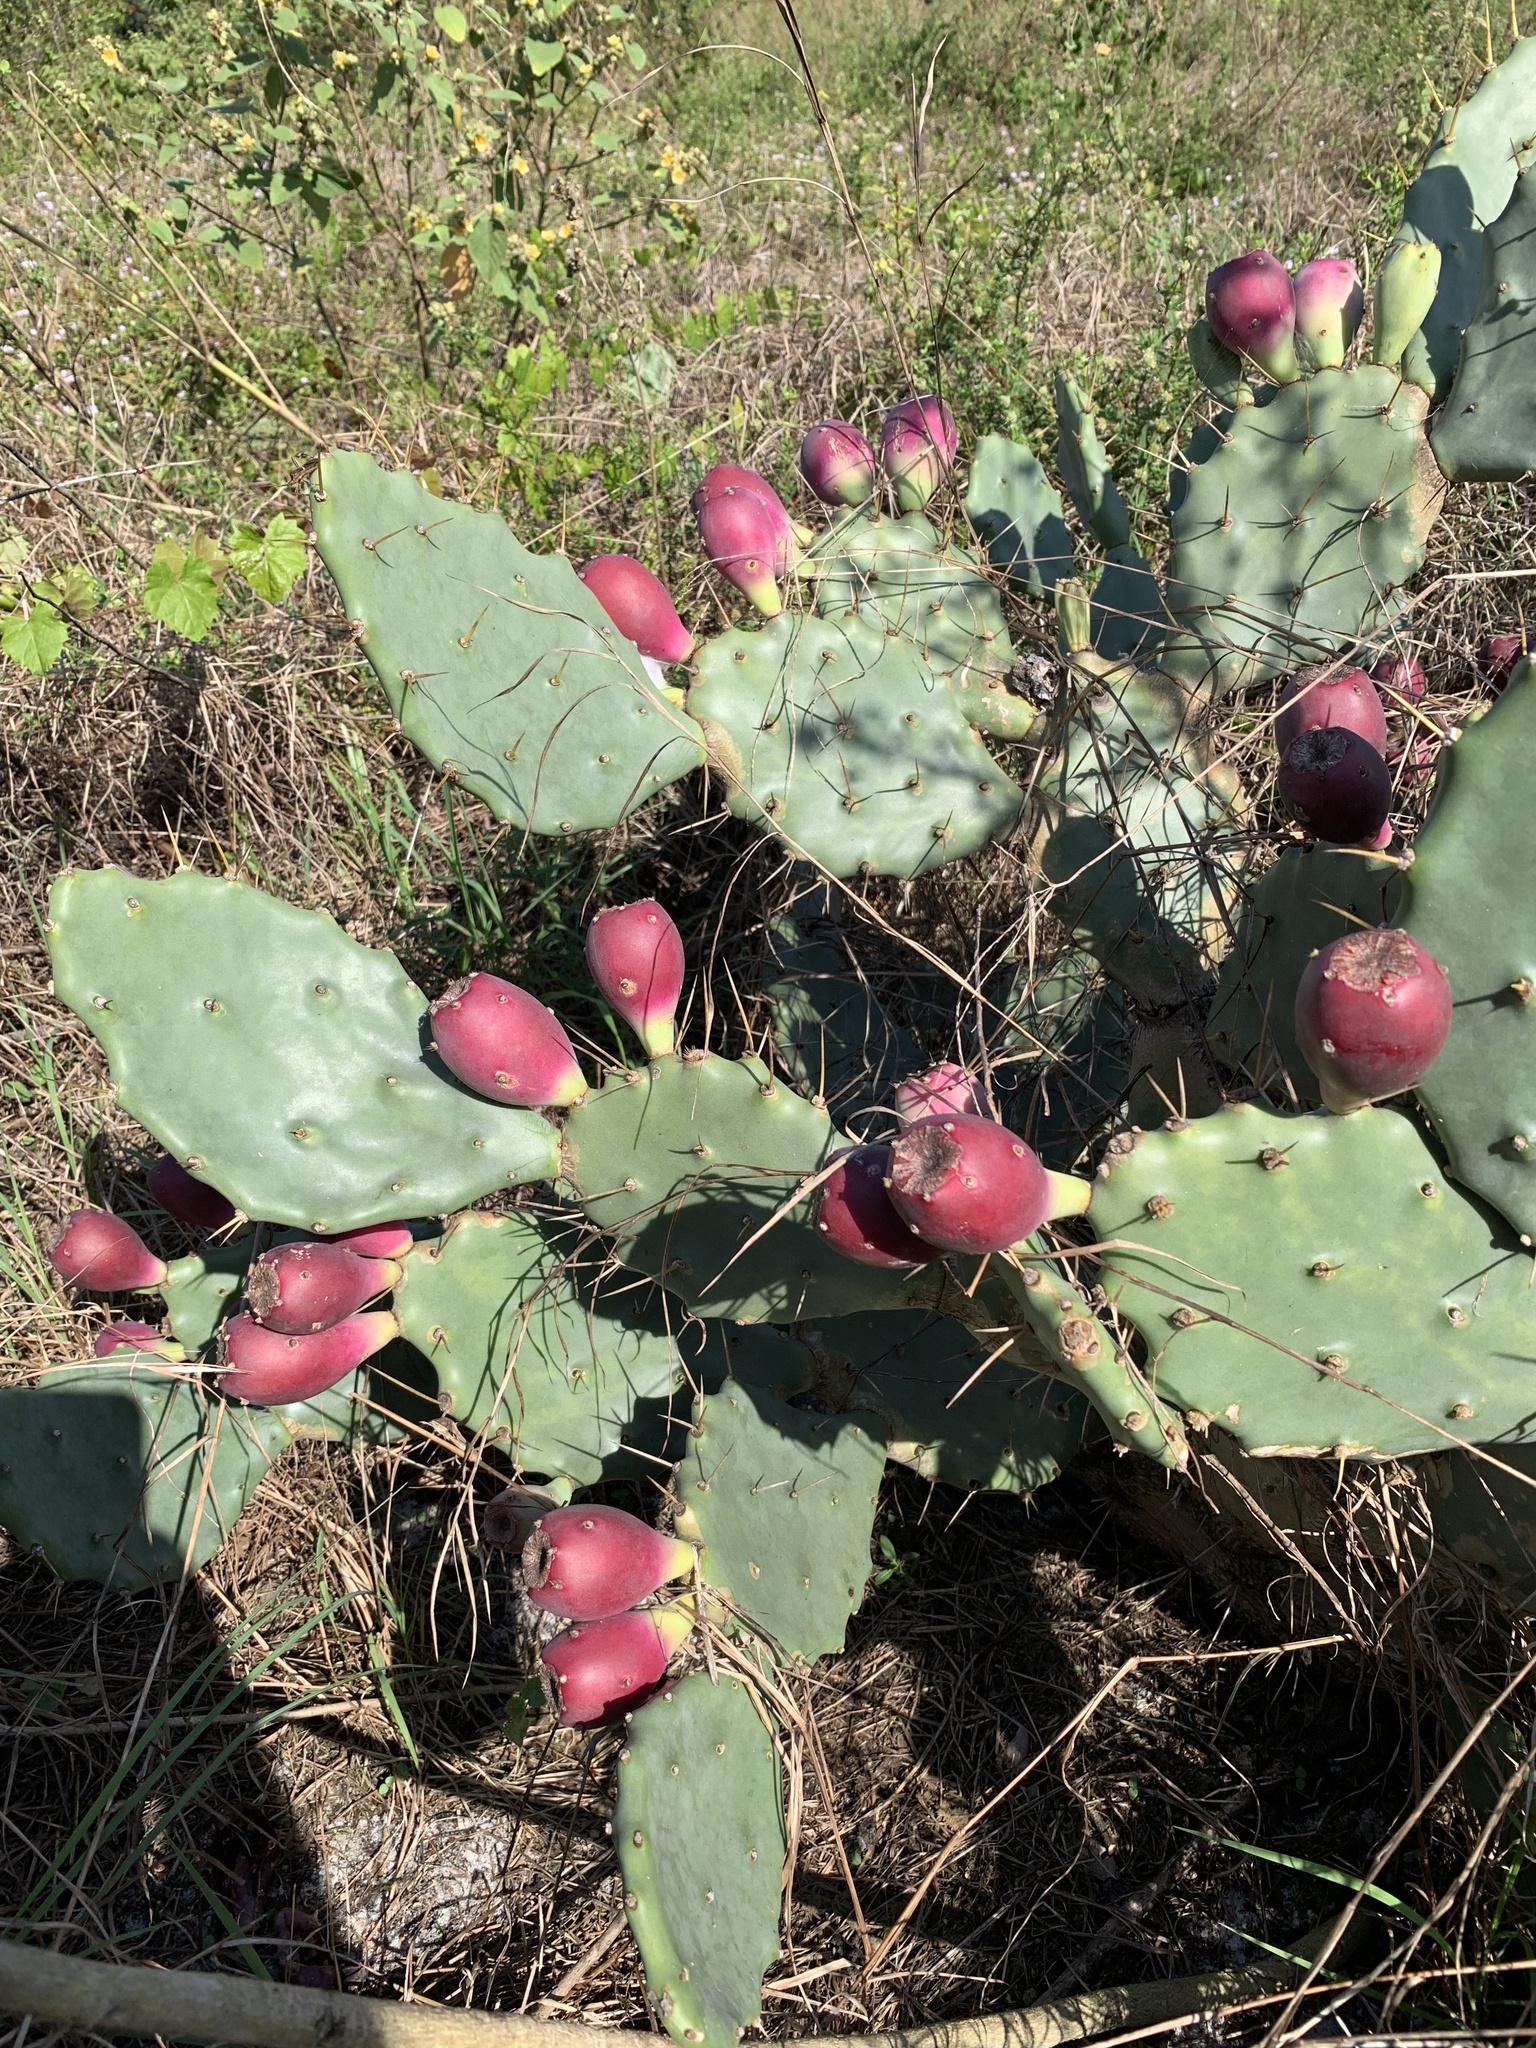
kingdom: Plantae
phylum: Tracheophyta
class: Magnoliopsida
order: Caryophyllales
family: Cactaceae
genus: Opuntia
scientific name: Opuntia stricta
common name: Erect pricklypear
